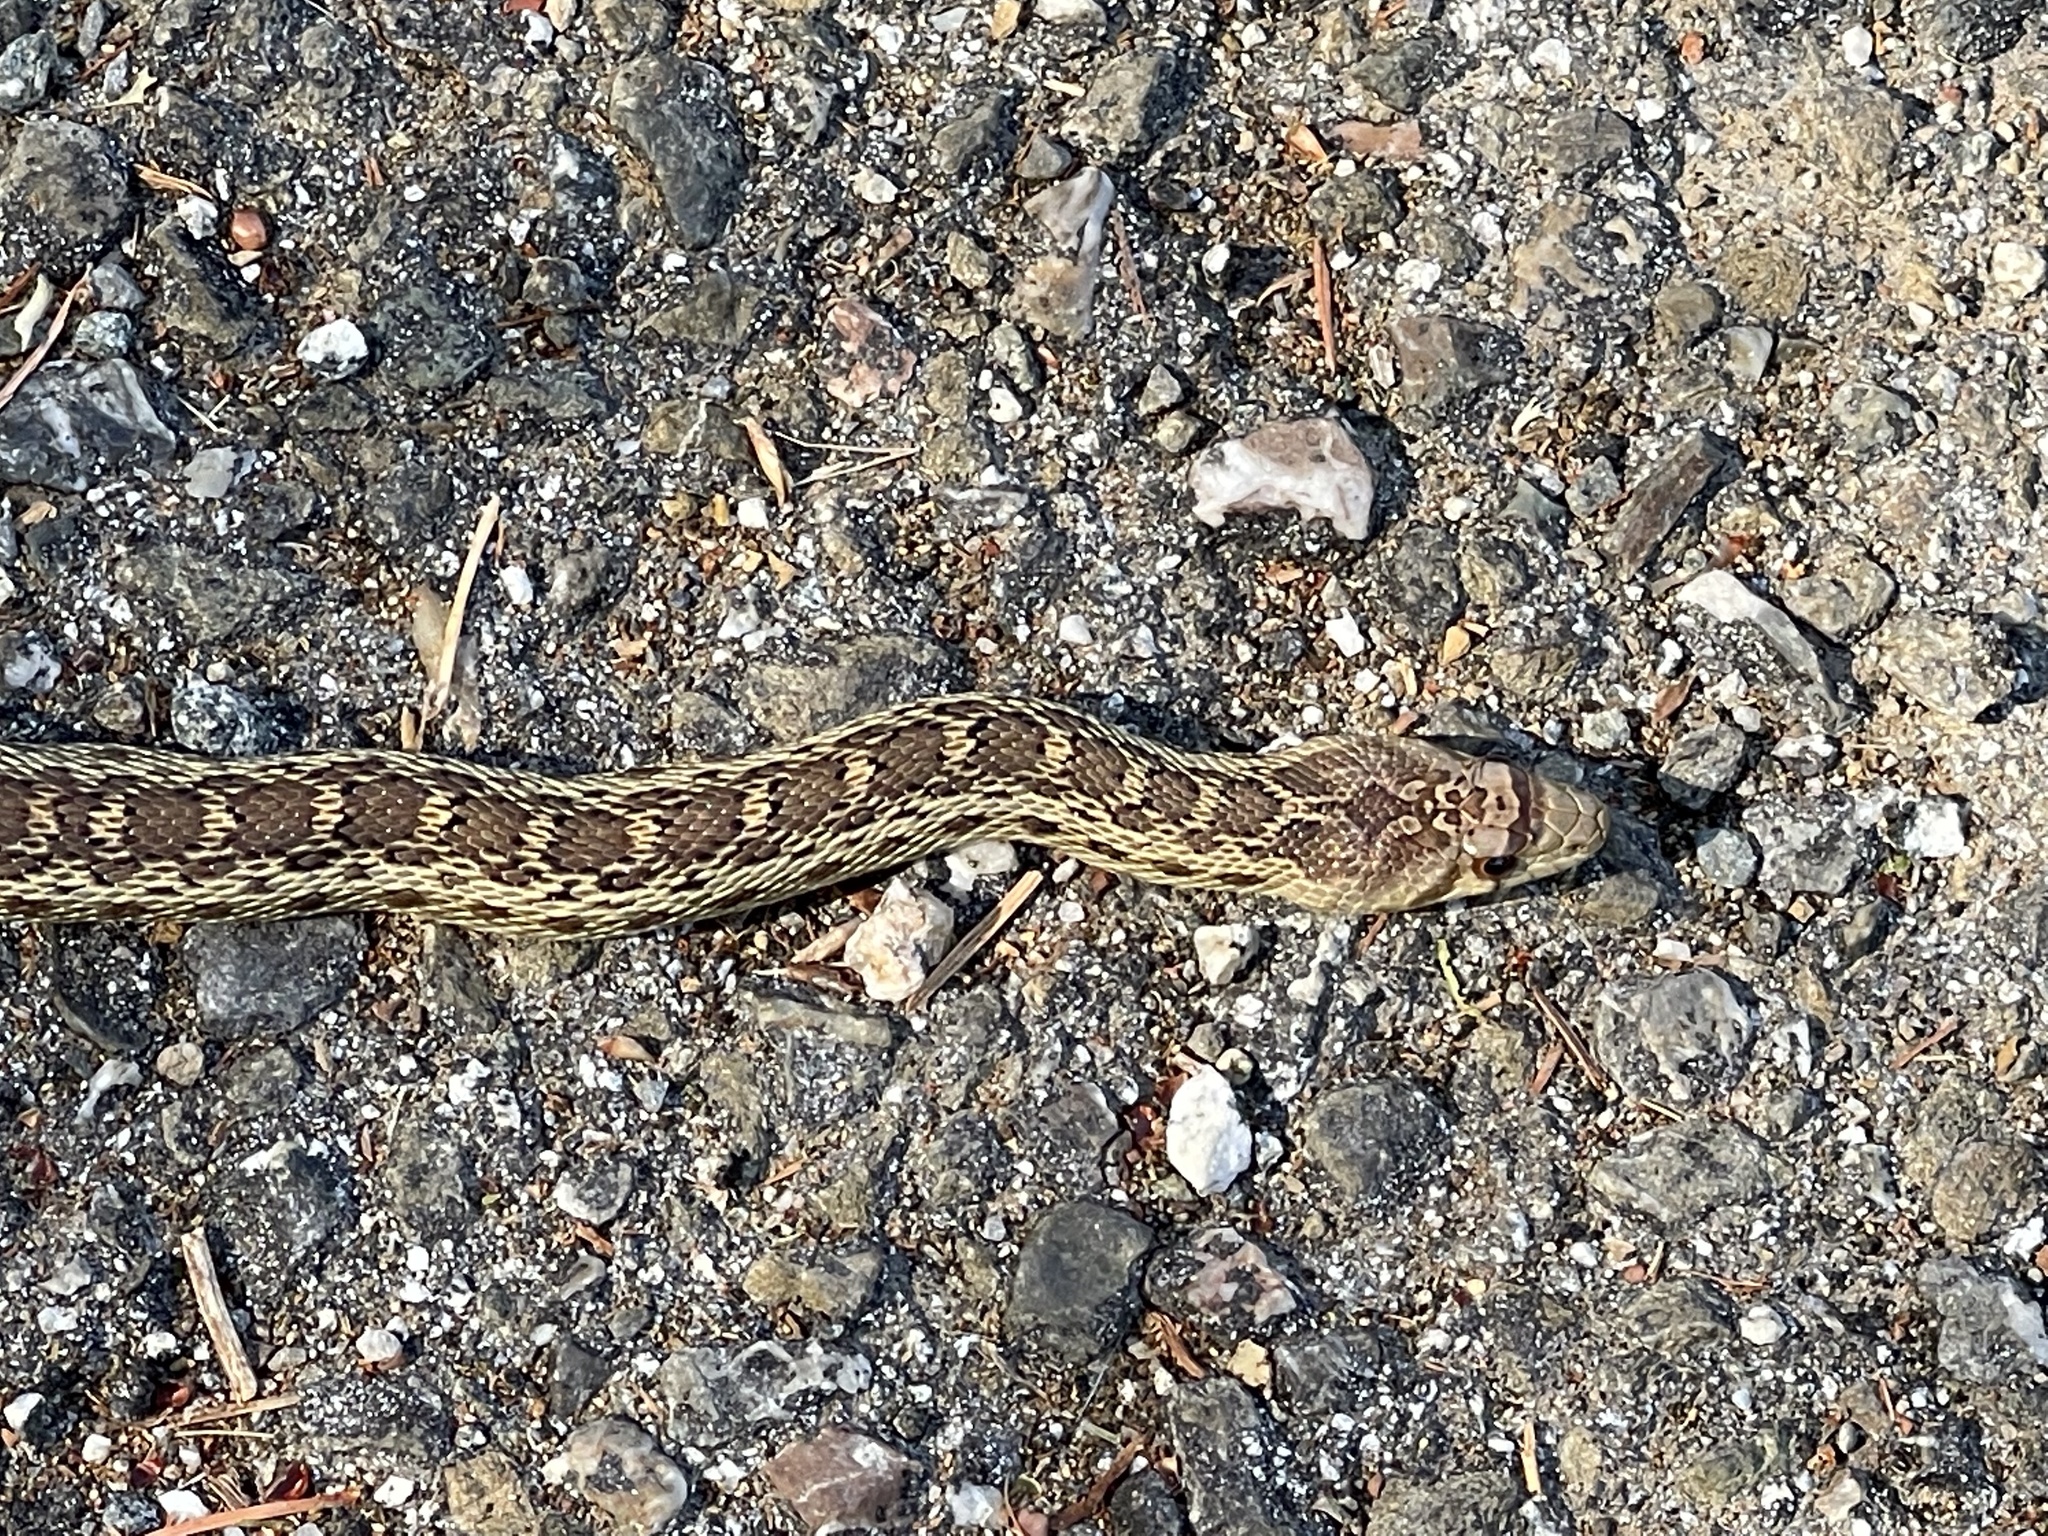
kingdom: Animalia
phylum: Chordata
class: Squamata
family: Colubridae
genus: Pituophis
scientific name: Pituophis catenifer
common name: Gopher snake
